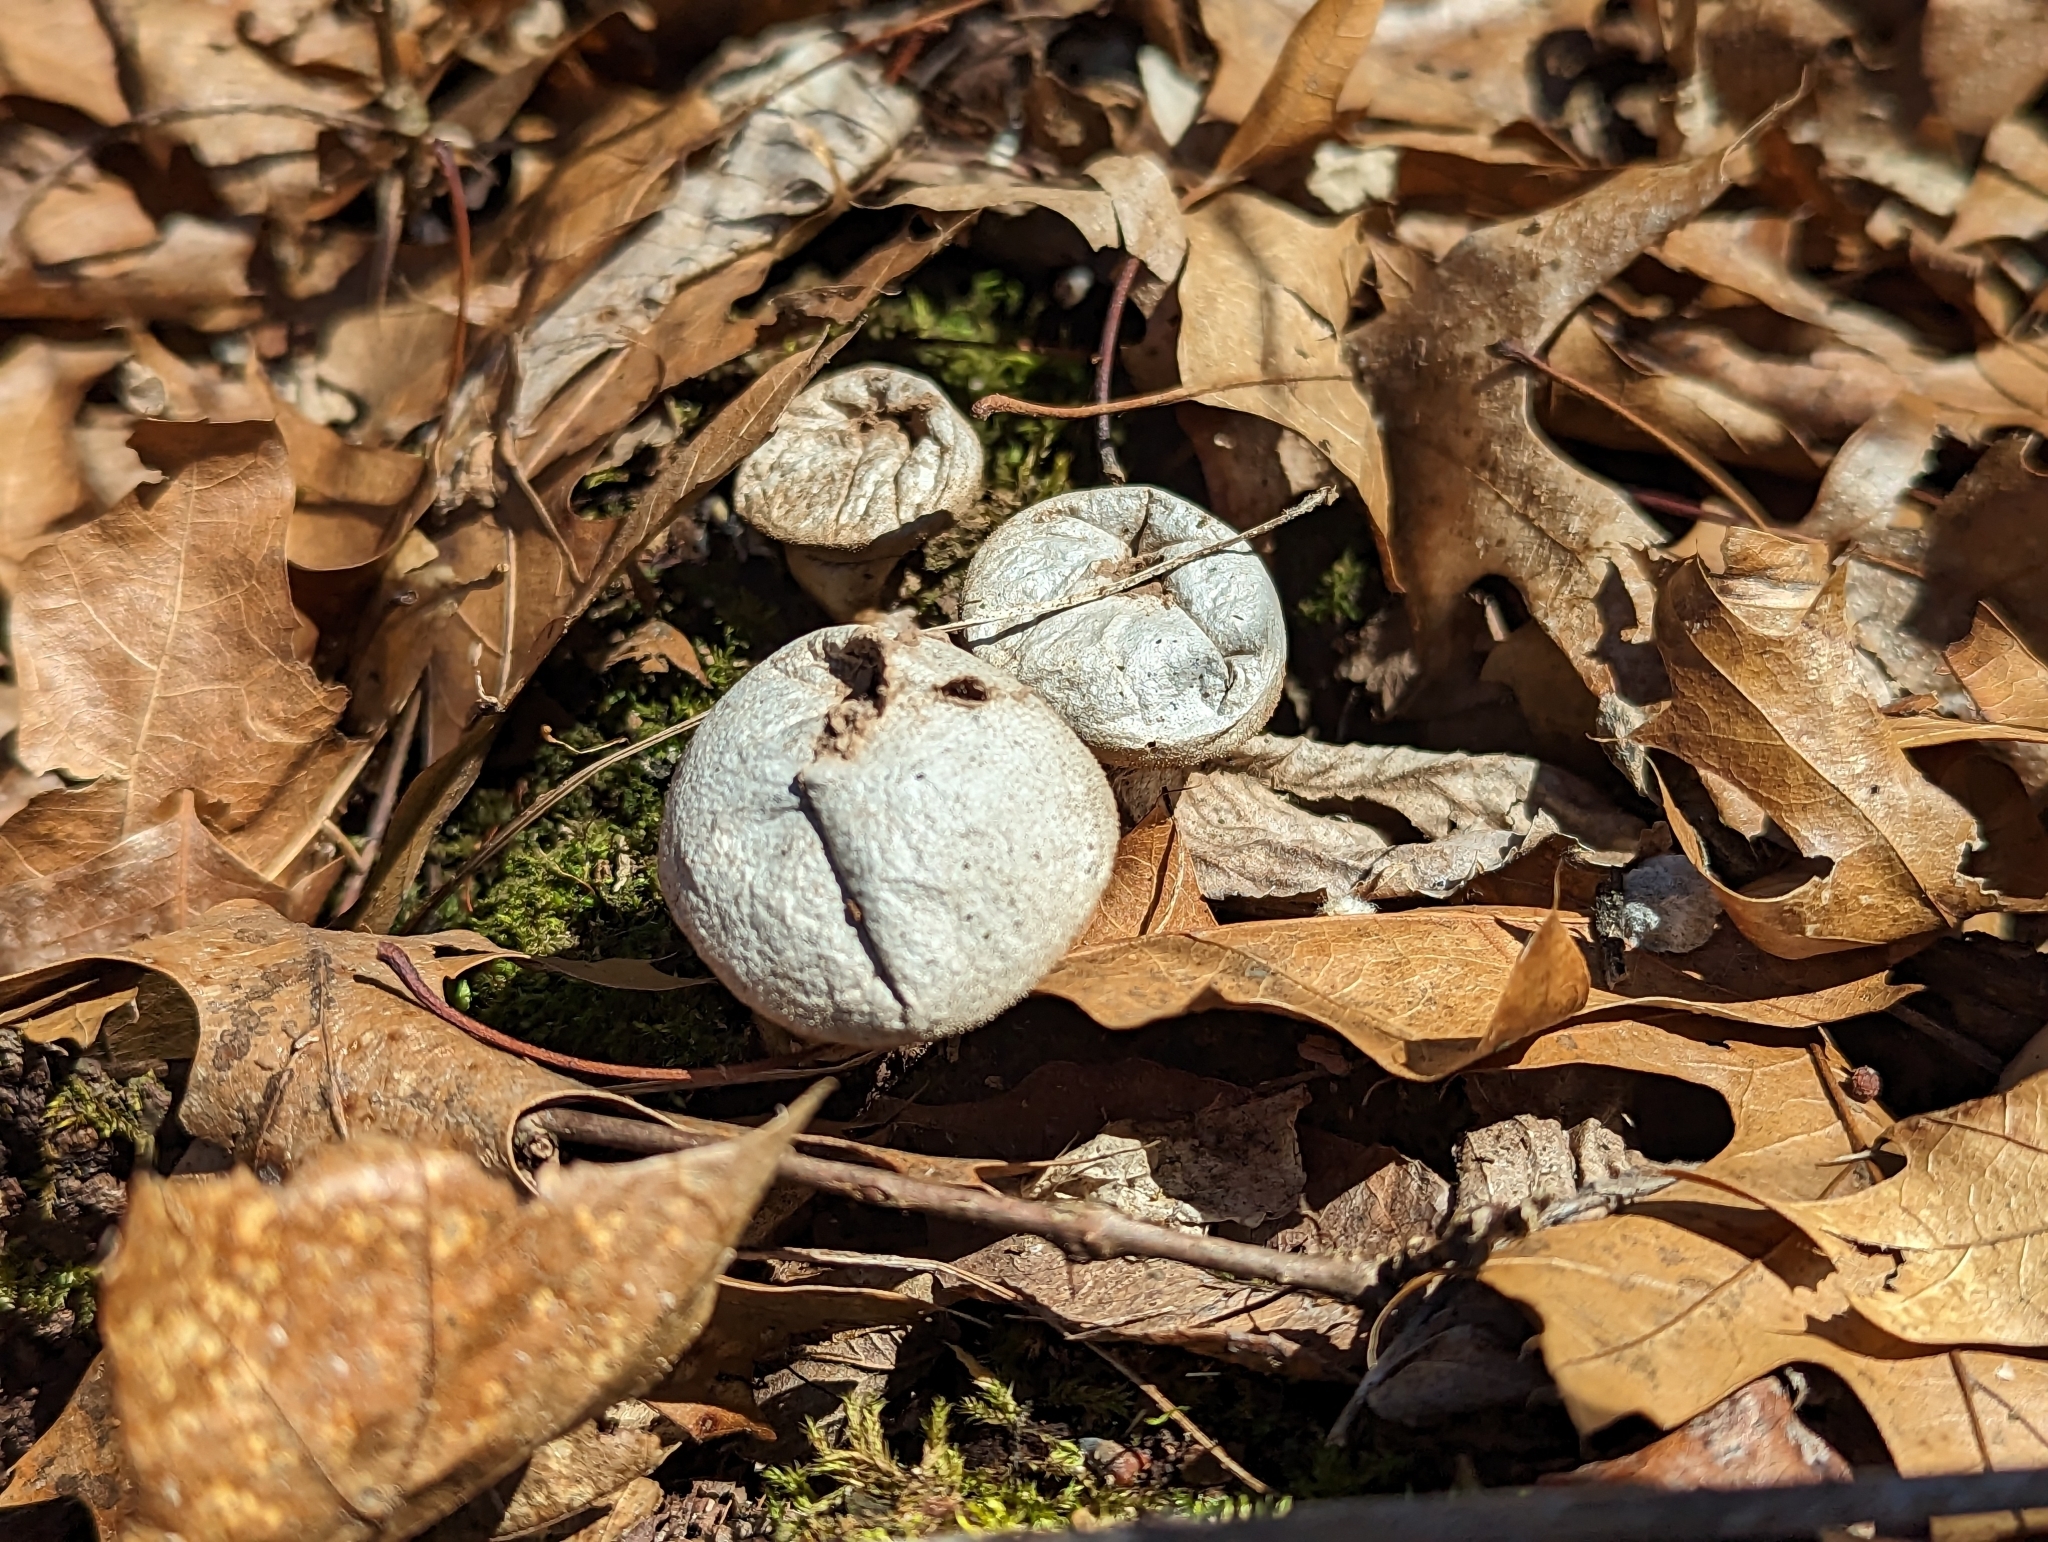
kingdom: Fungi
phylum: Basidiomycota
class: Agaricomycetes
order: Agaricales
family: Lycoperdaceae
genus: Apioperdon
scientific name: Apioperdon pyriforme
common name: Pear-shaped puffball
